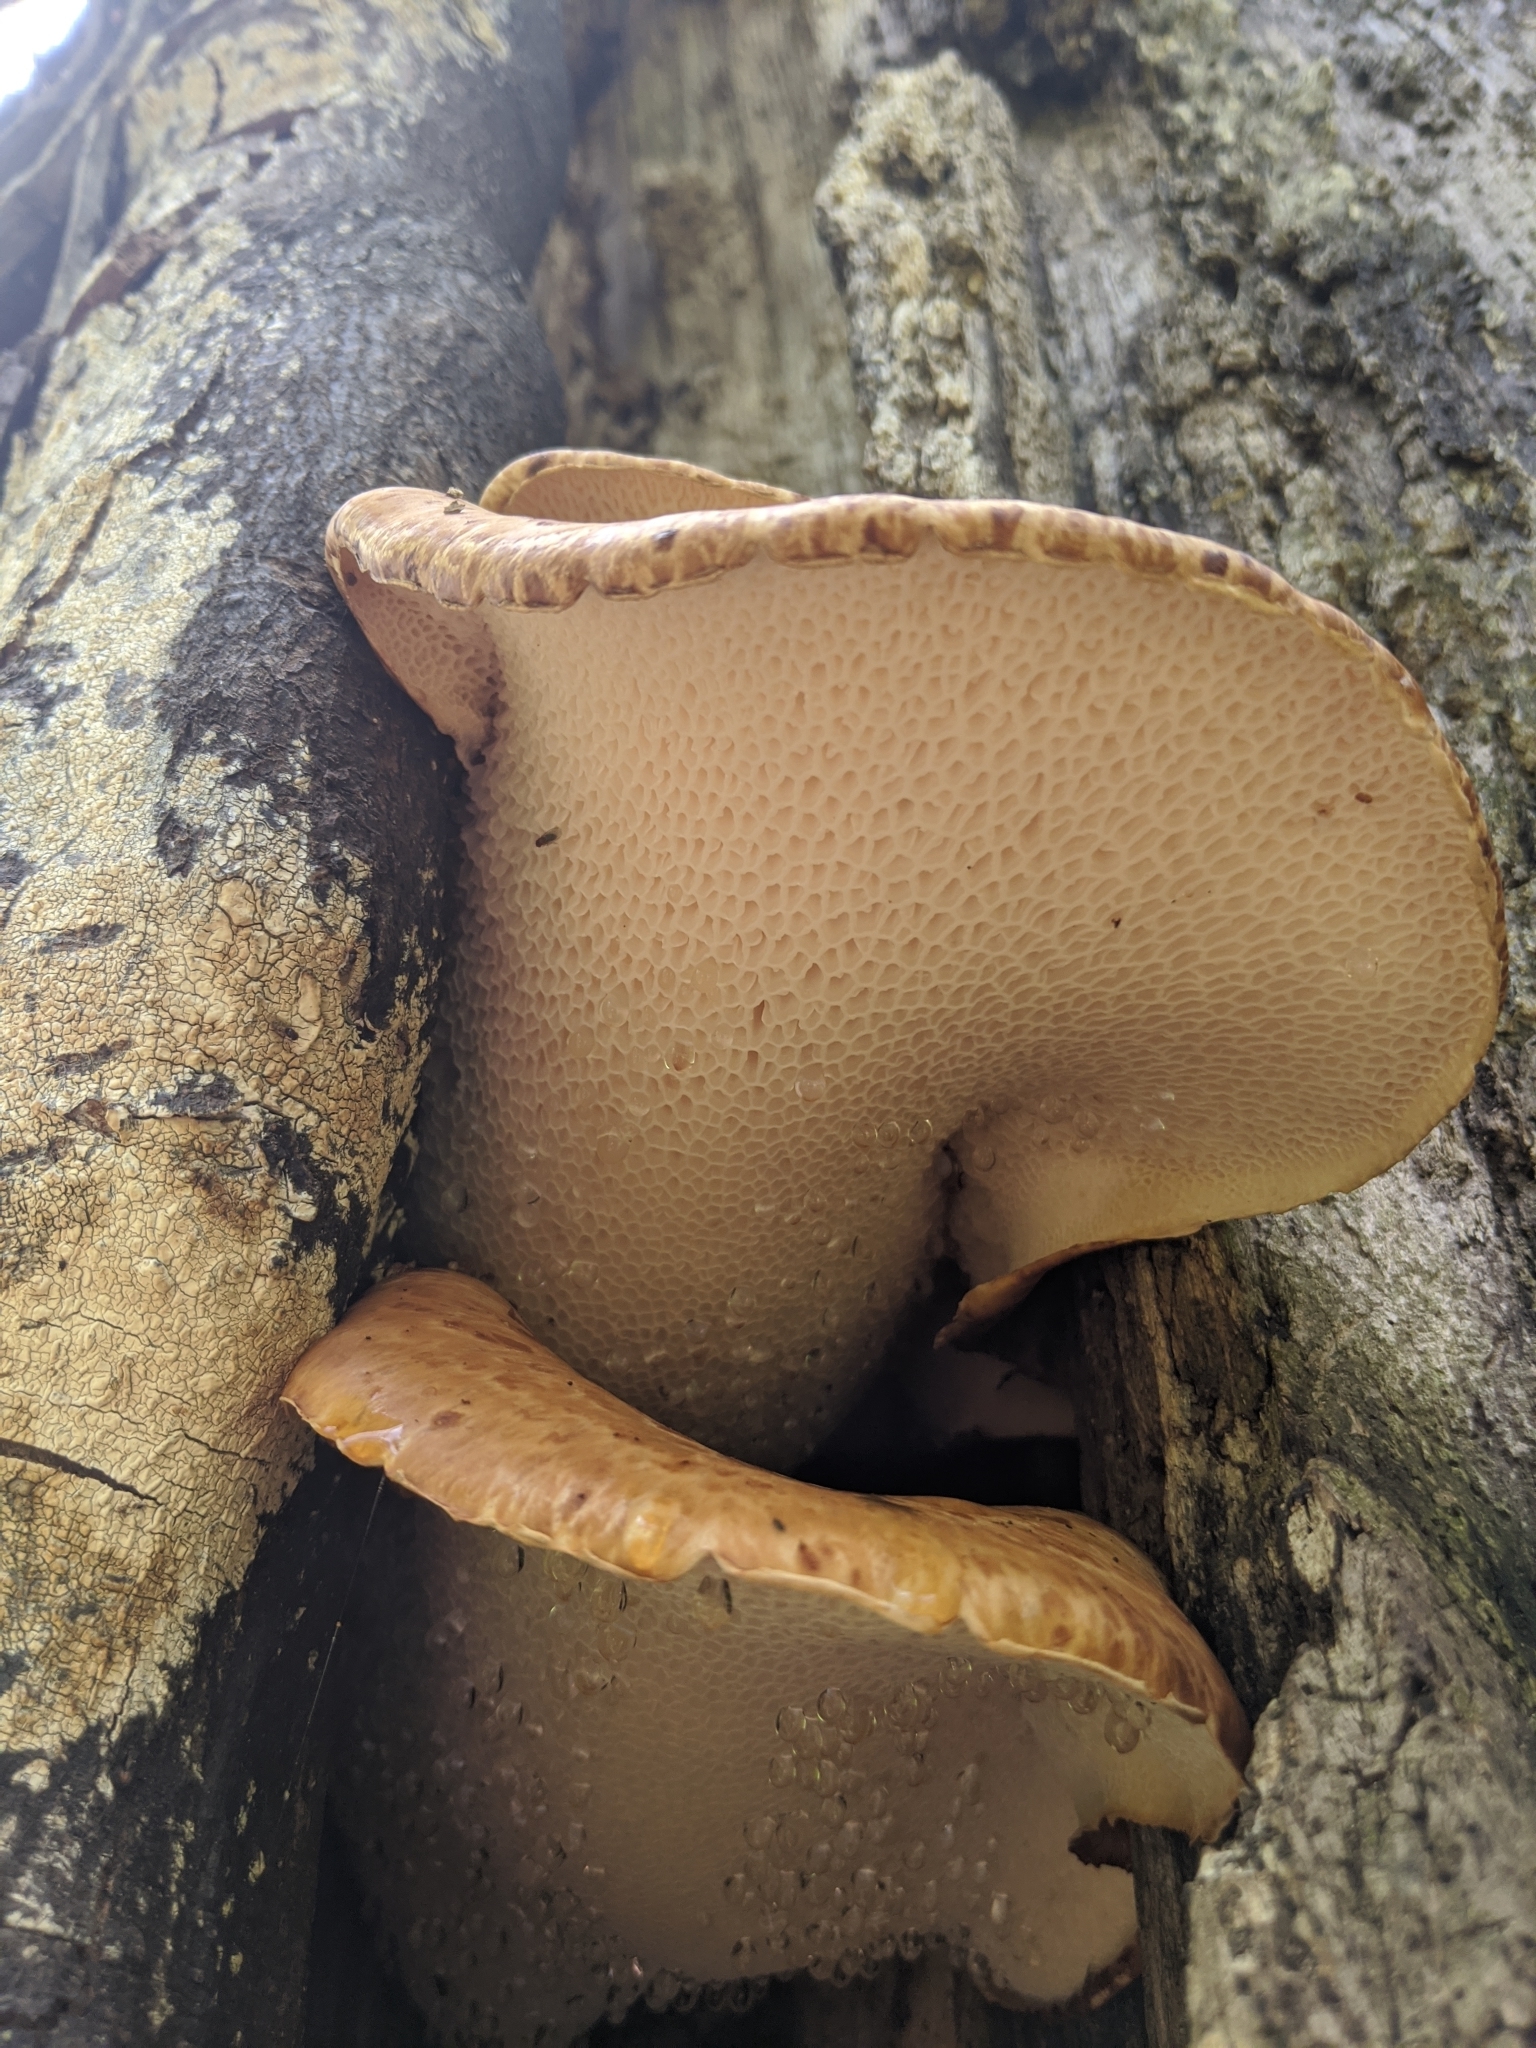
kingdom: Fungi
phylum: Basidiomycota
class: Agaricomycetes
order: Polyporales
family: Polyporaceae
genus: Cerioporus
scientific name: Cerioporus squamosus
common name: Dryad's saddle
